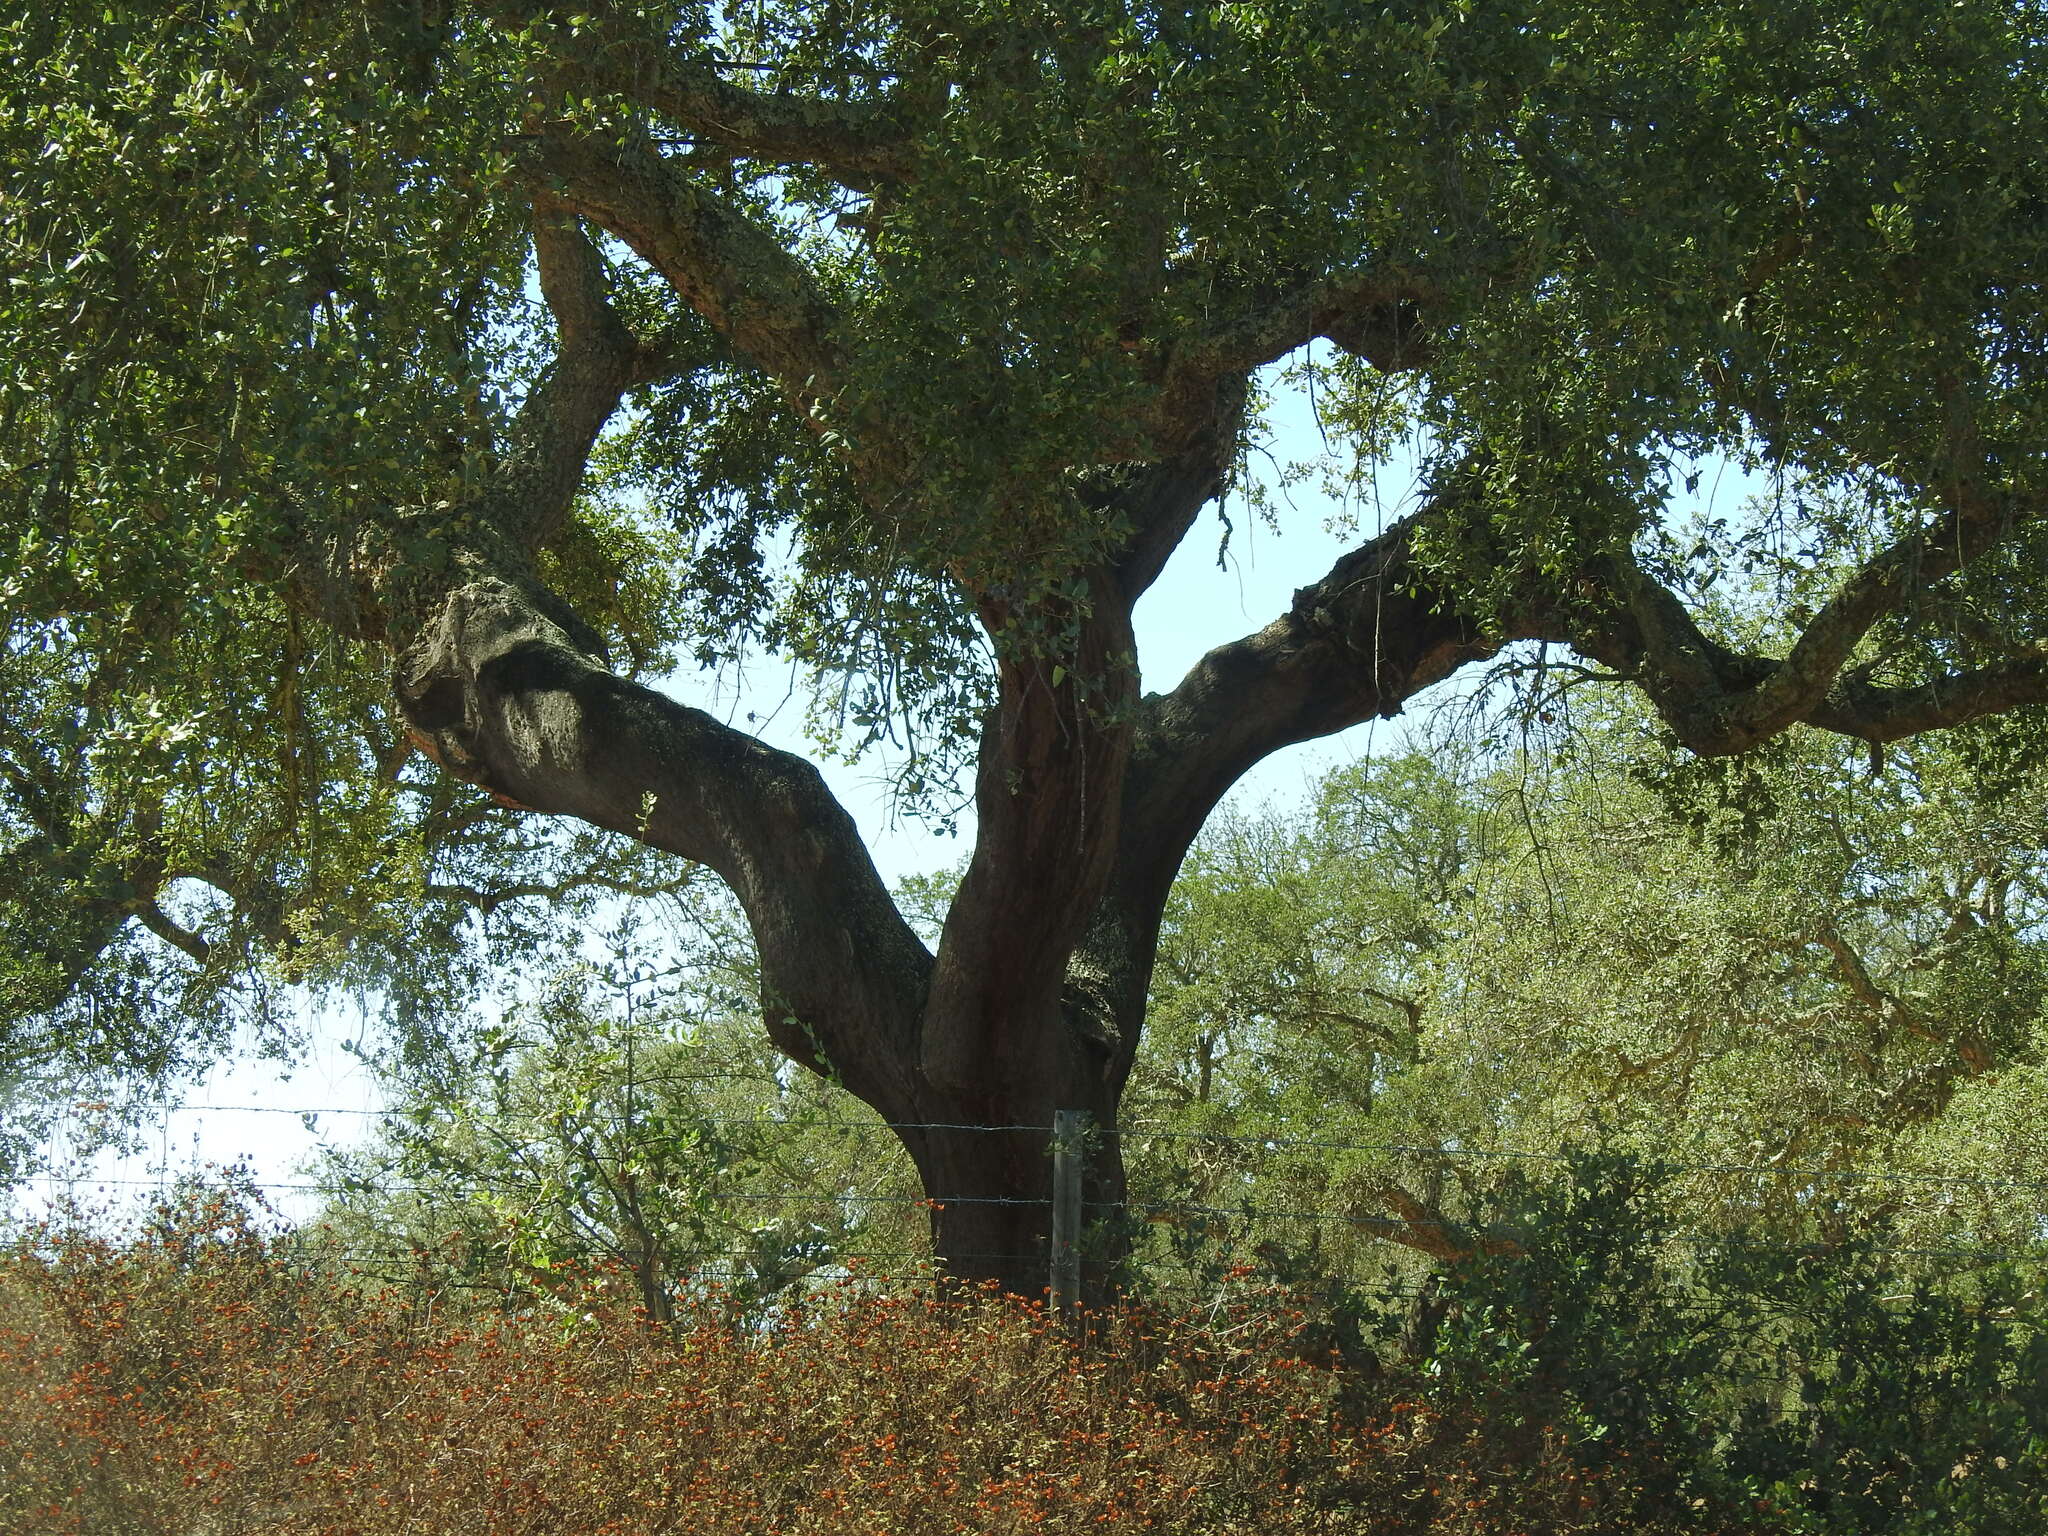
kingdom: Plantae
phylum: Tracheophyta
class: Magnoliopsida
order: Fagales
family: Fagaceae
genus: Quercus
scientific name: Quercus suber
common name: Cork oak
